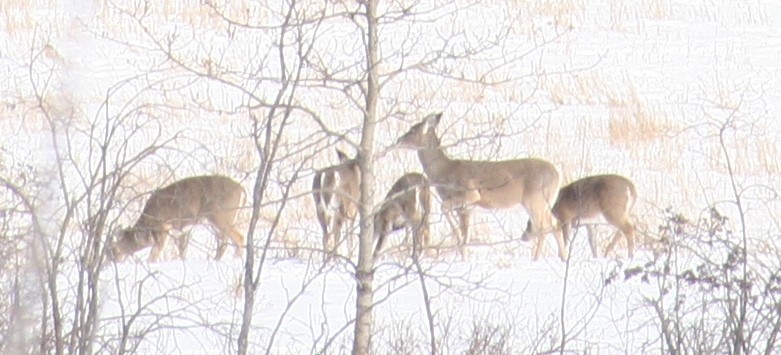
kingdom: Animalia
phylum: Chordata
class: Mammalia
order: Artiodactyla
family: Cervidae
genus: Odocoileus
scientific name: Odocoileus virginianus
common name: White-tailed deer
